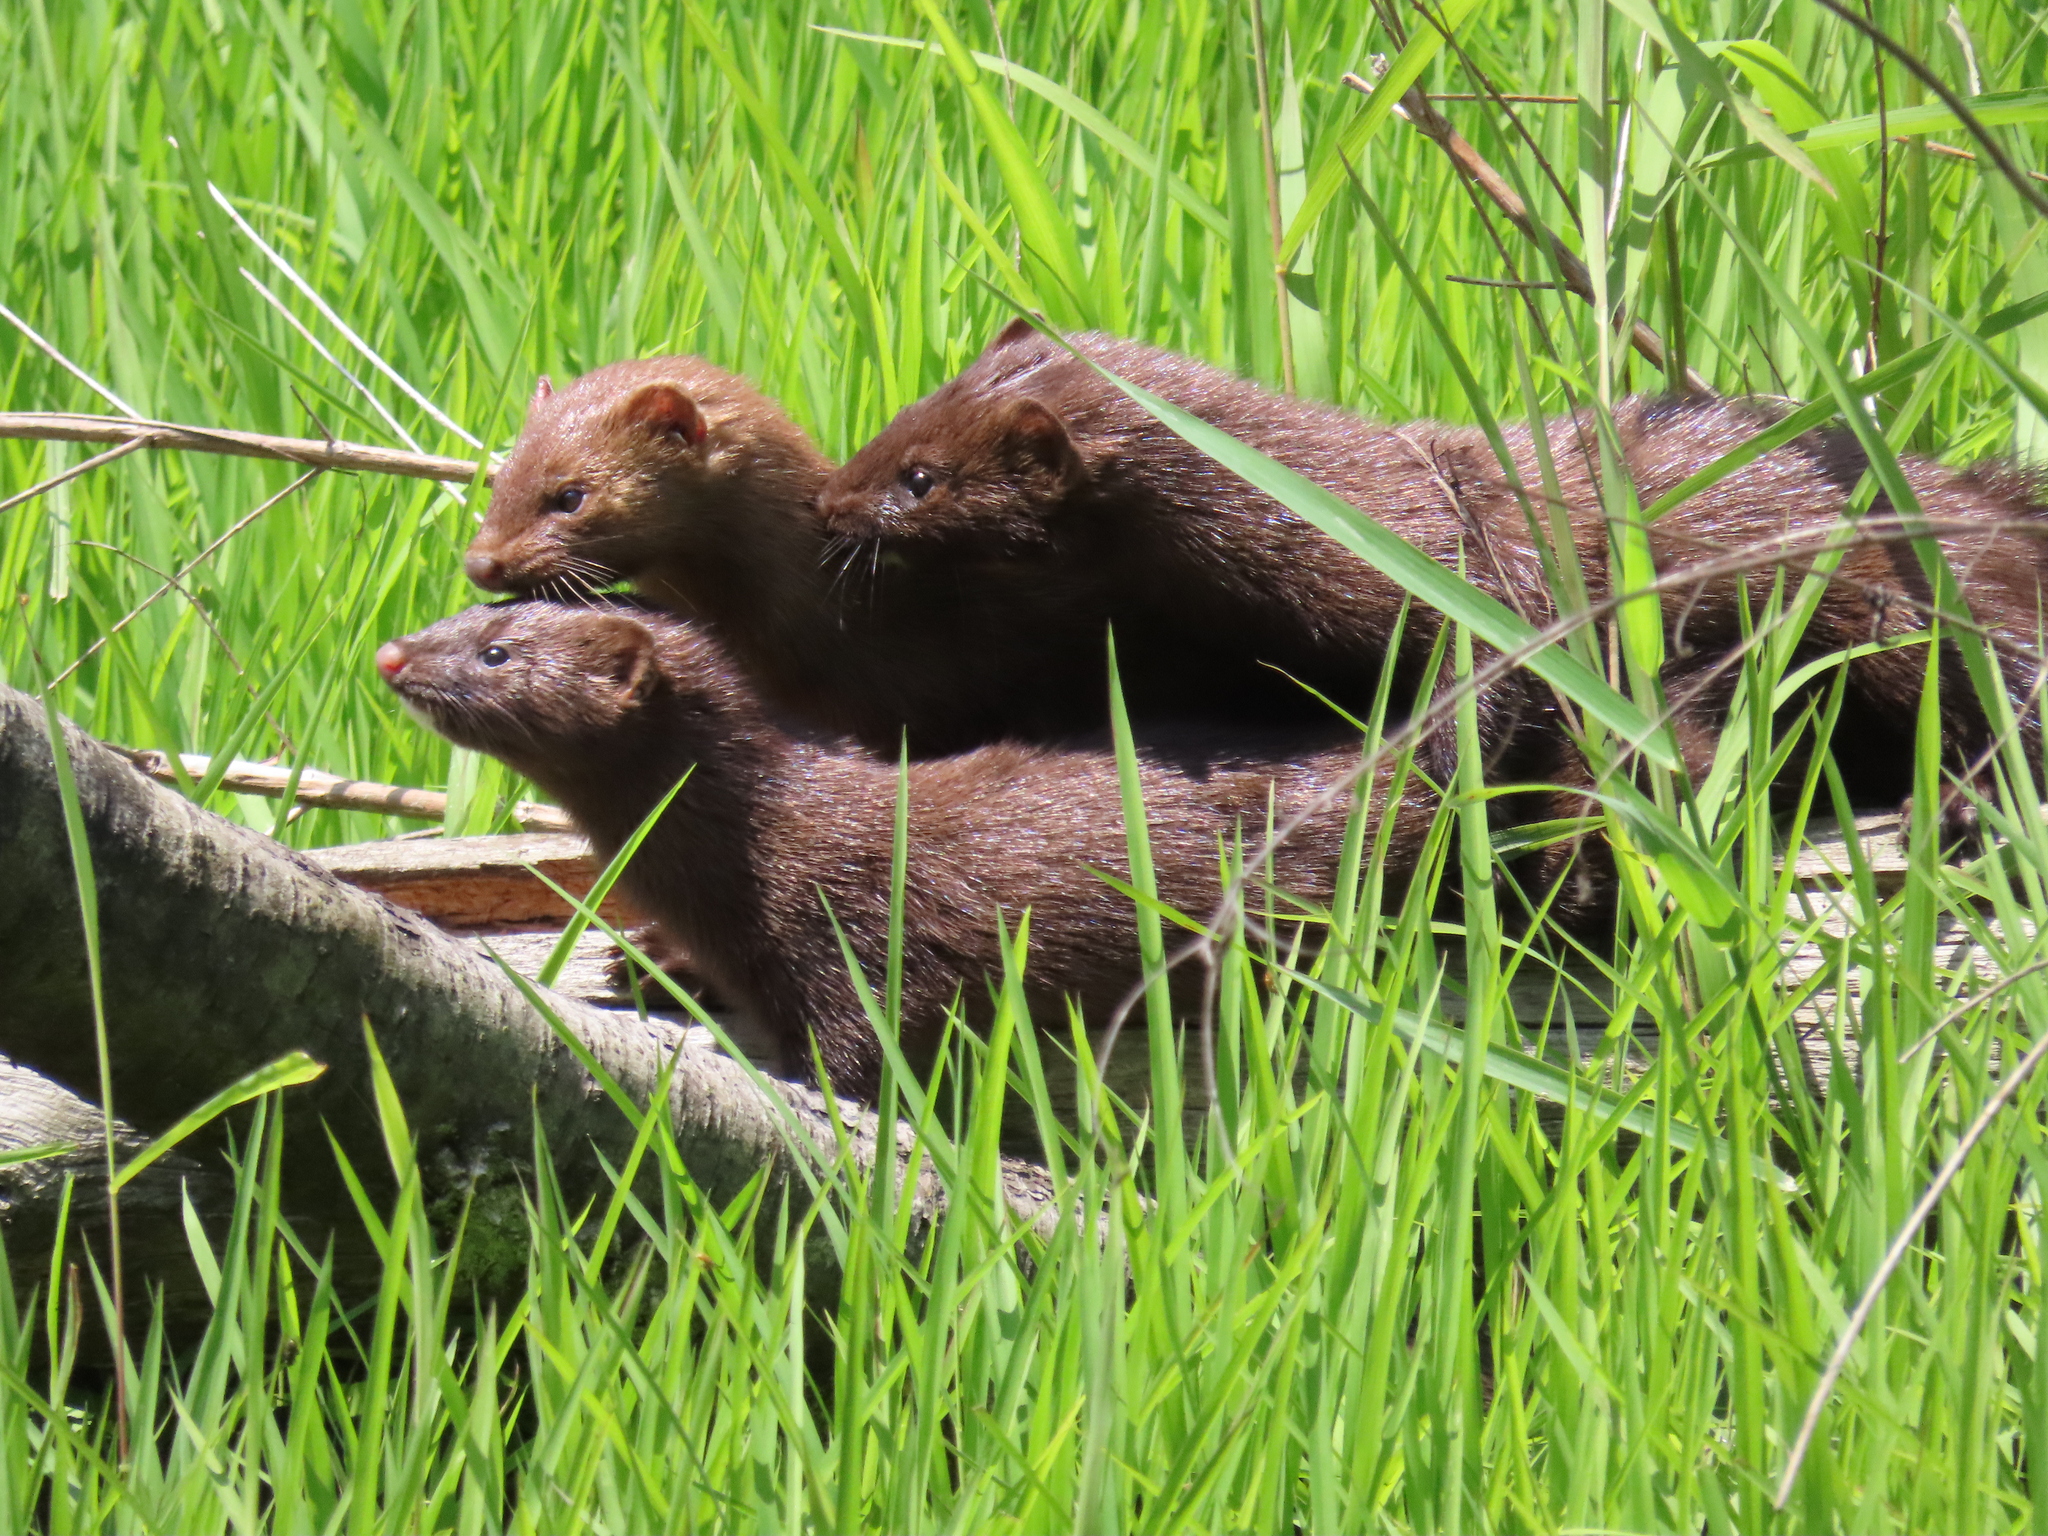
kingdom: Animalia
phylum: Chordata
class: Mammalia
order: Carnivora
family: Mustelidae
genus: Mustela
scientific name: Mustela
